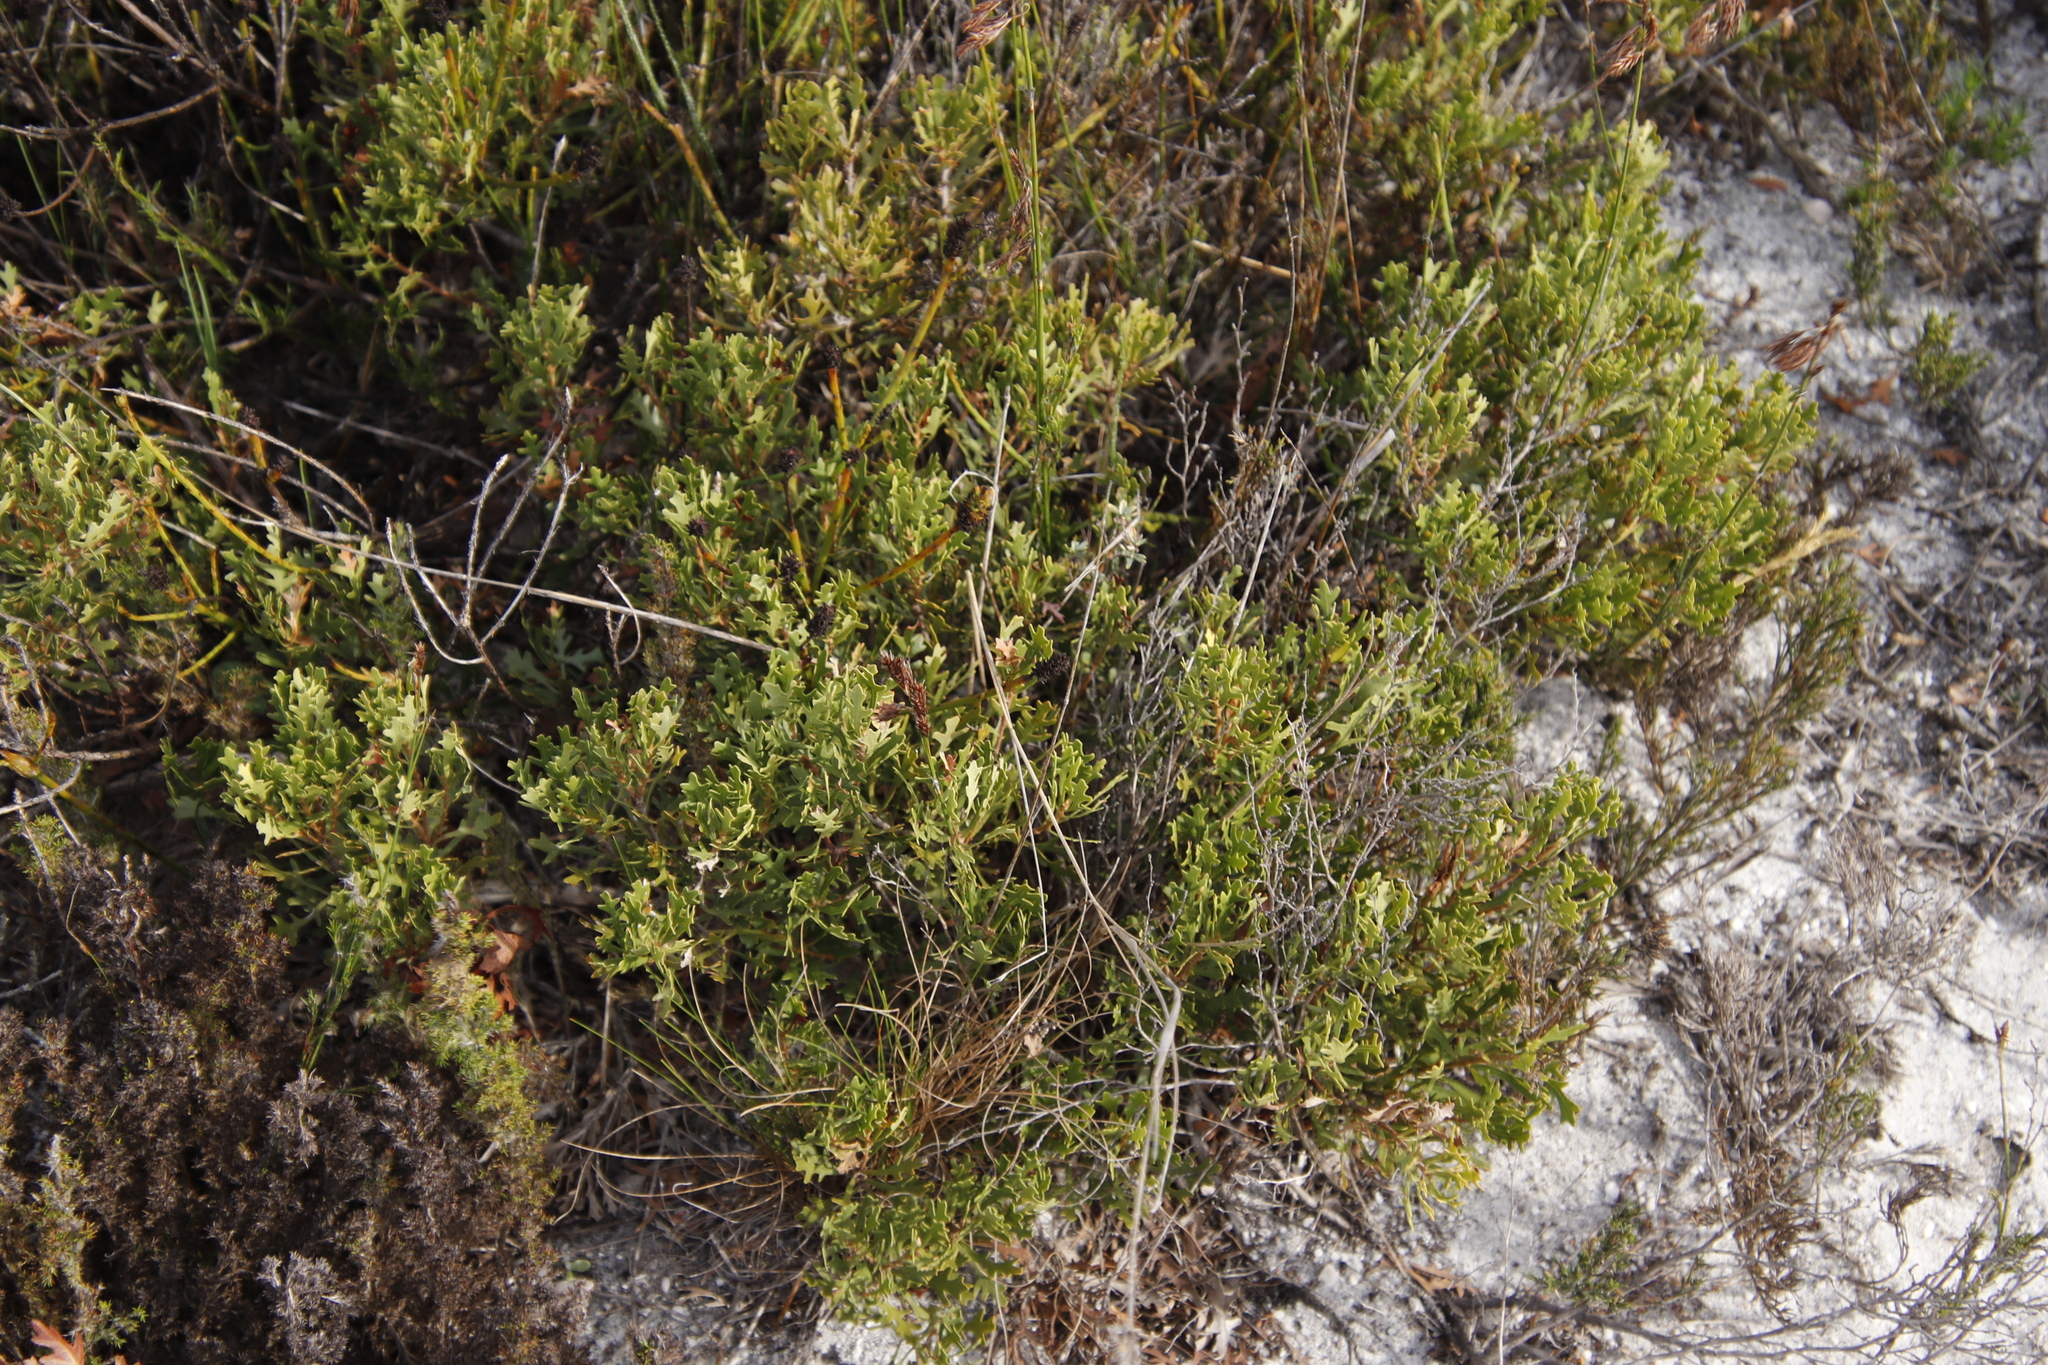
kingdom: Plantae
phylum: Tracheophyta
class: Magnoliopsida
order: Fagales
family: Myricaceae
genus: Morella
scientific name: Morella quercifolia
